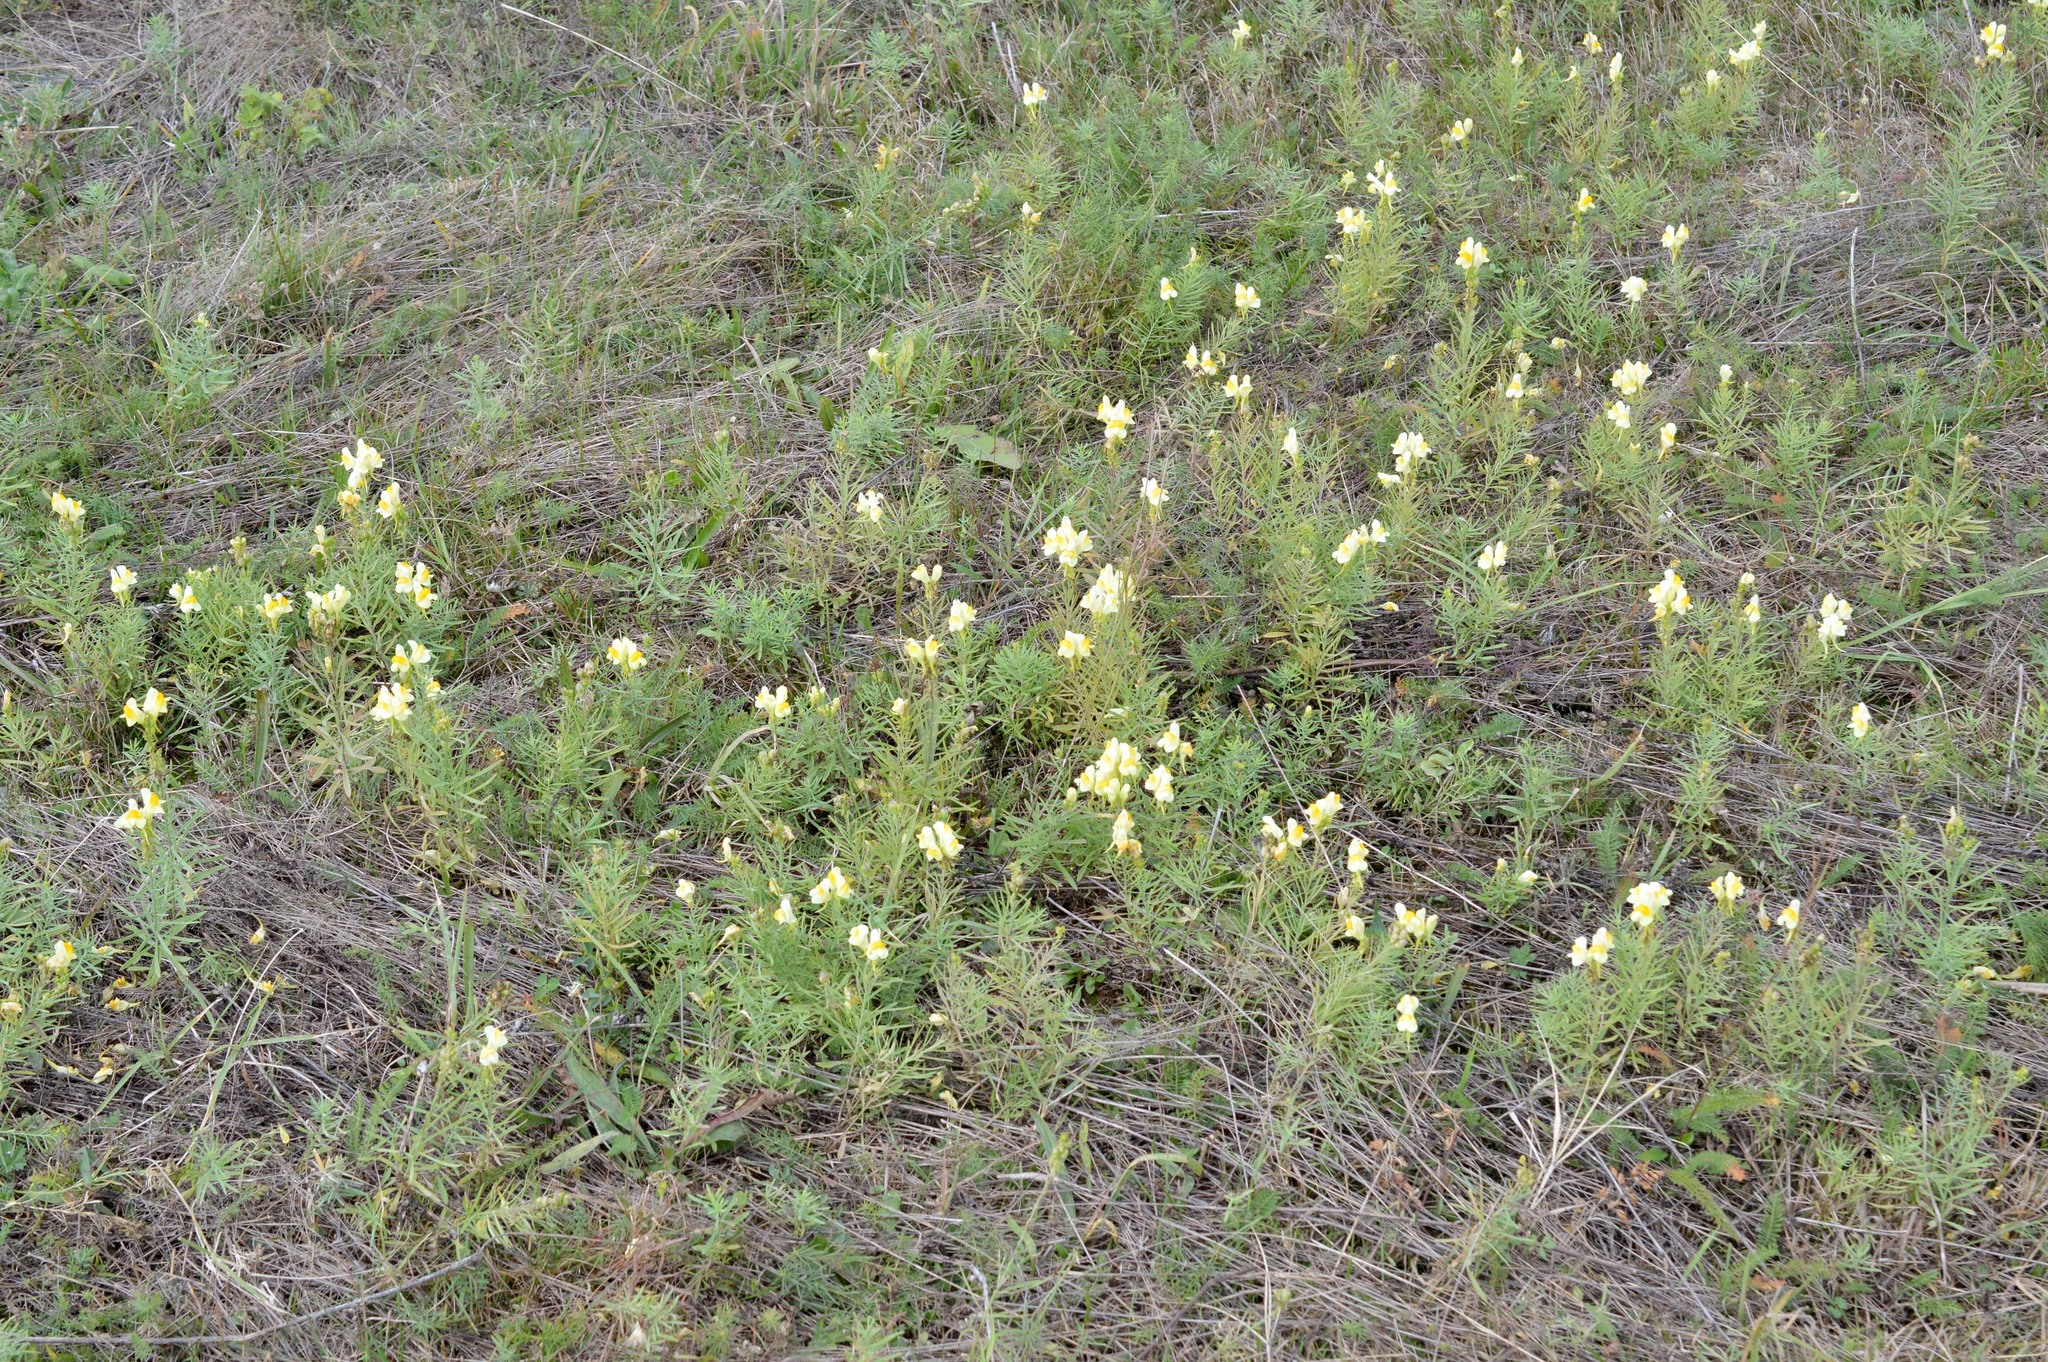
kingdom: Plantae
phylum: Tracheophyta
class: Magnoliopsida
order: Lamiales
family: Plantaginaceae
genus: Linaria
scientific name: Linaria vulgaris
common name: Butter and eggs
